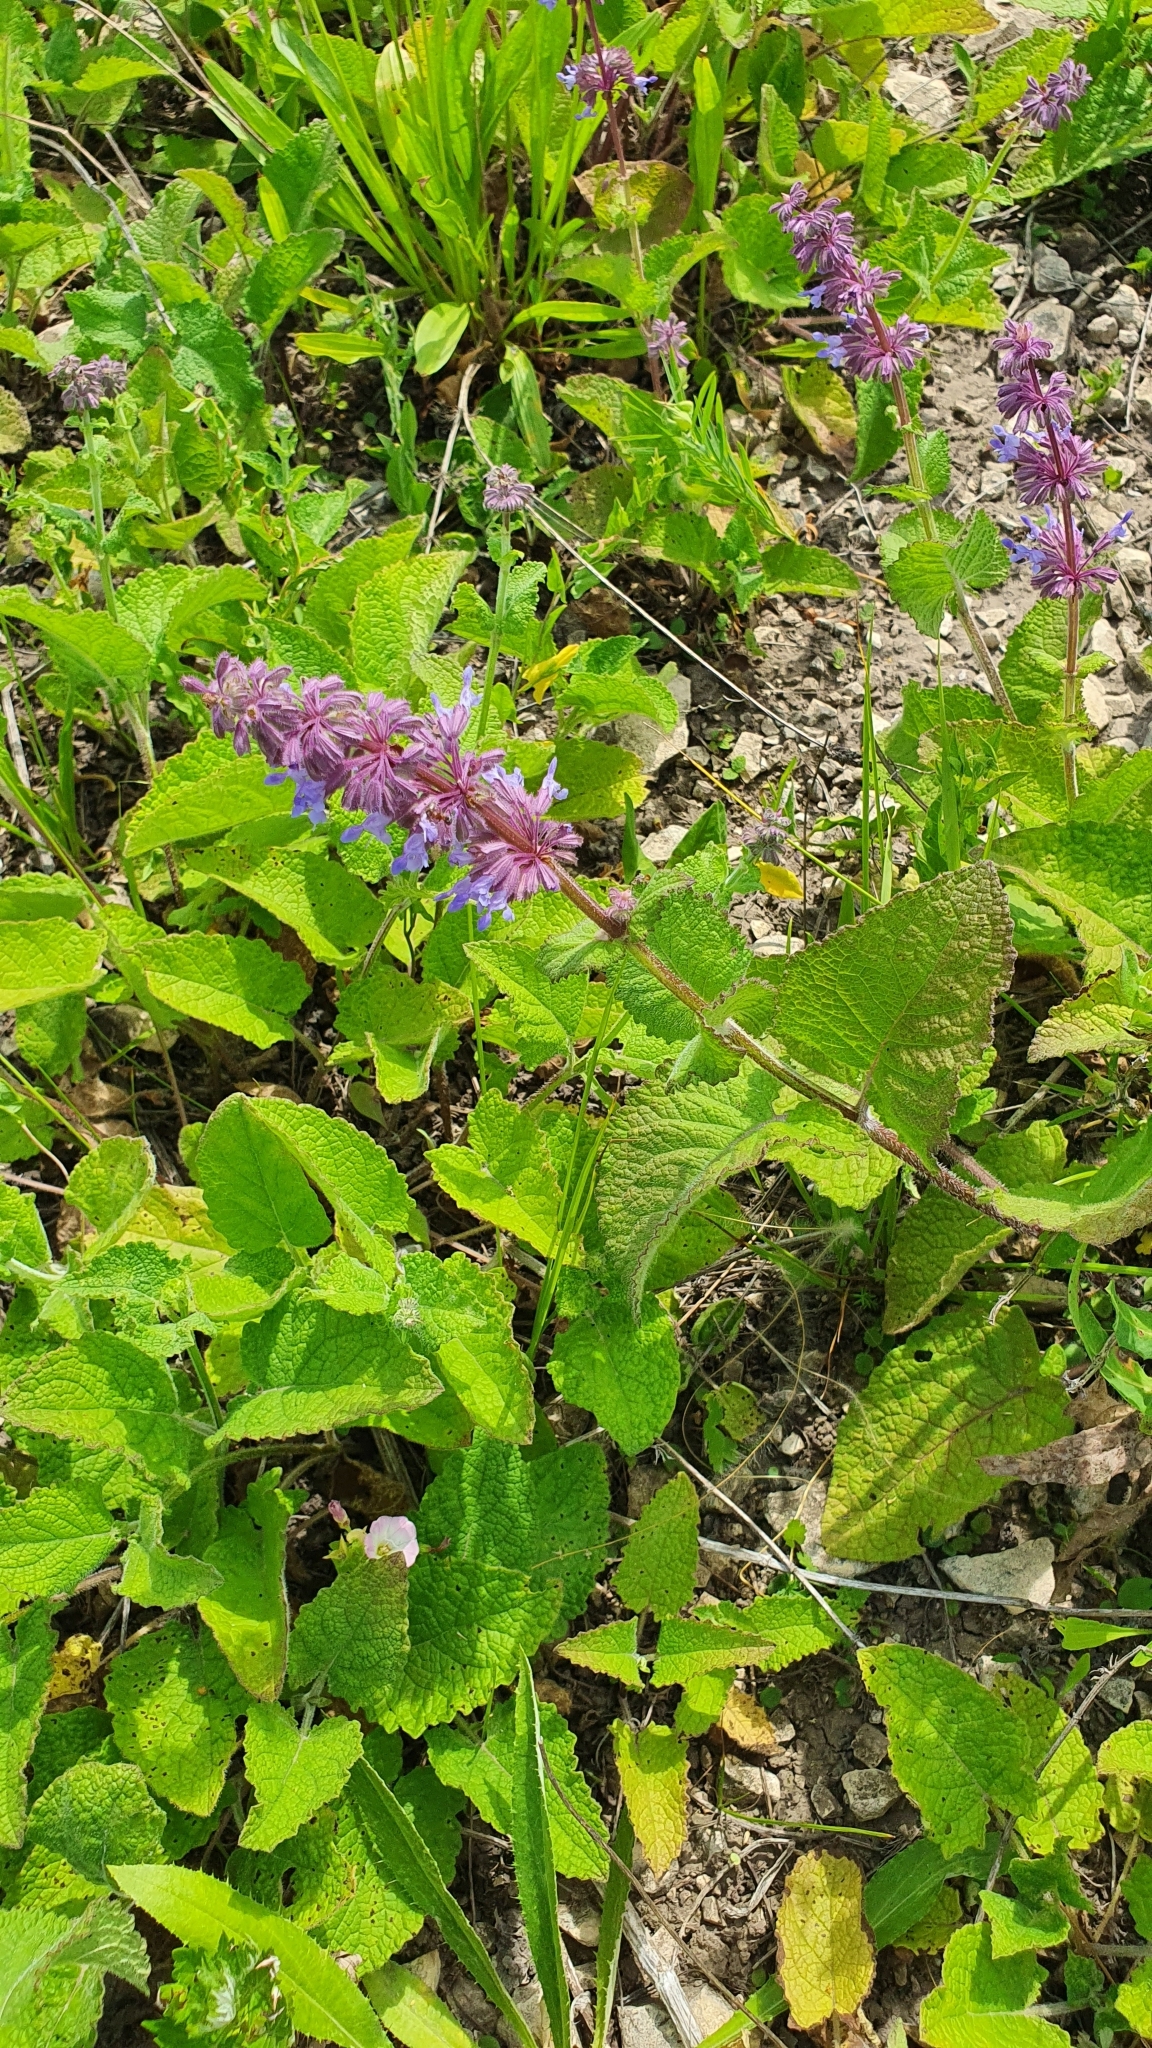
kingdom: Plantae
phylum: Tracheophyta
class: Magnoliopsida
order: Lamiales
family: Lamiaceae
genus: Salvia
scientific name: Salvia verticillata
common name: Whorled clary
